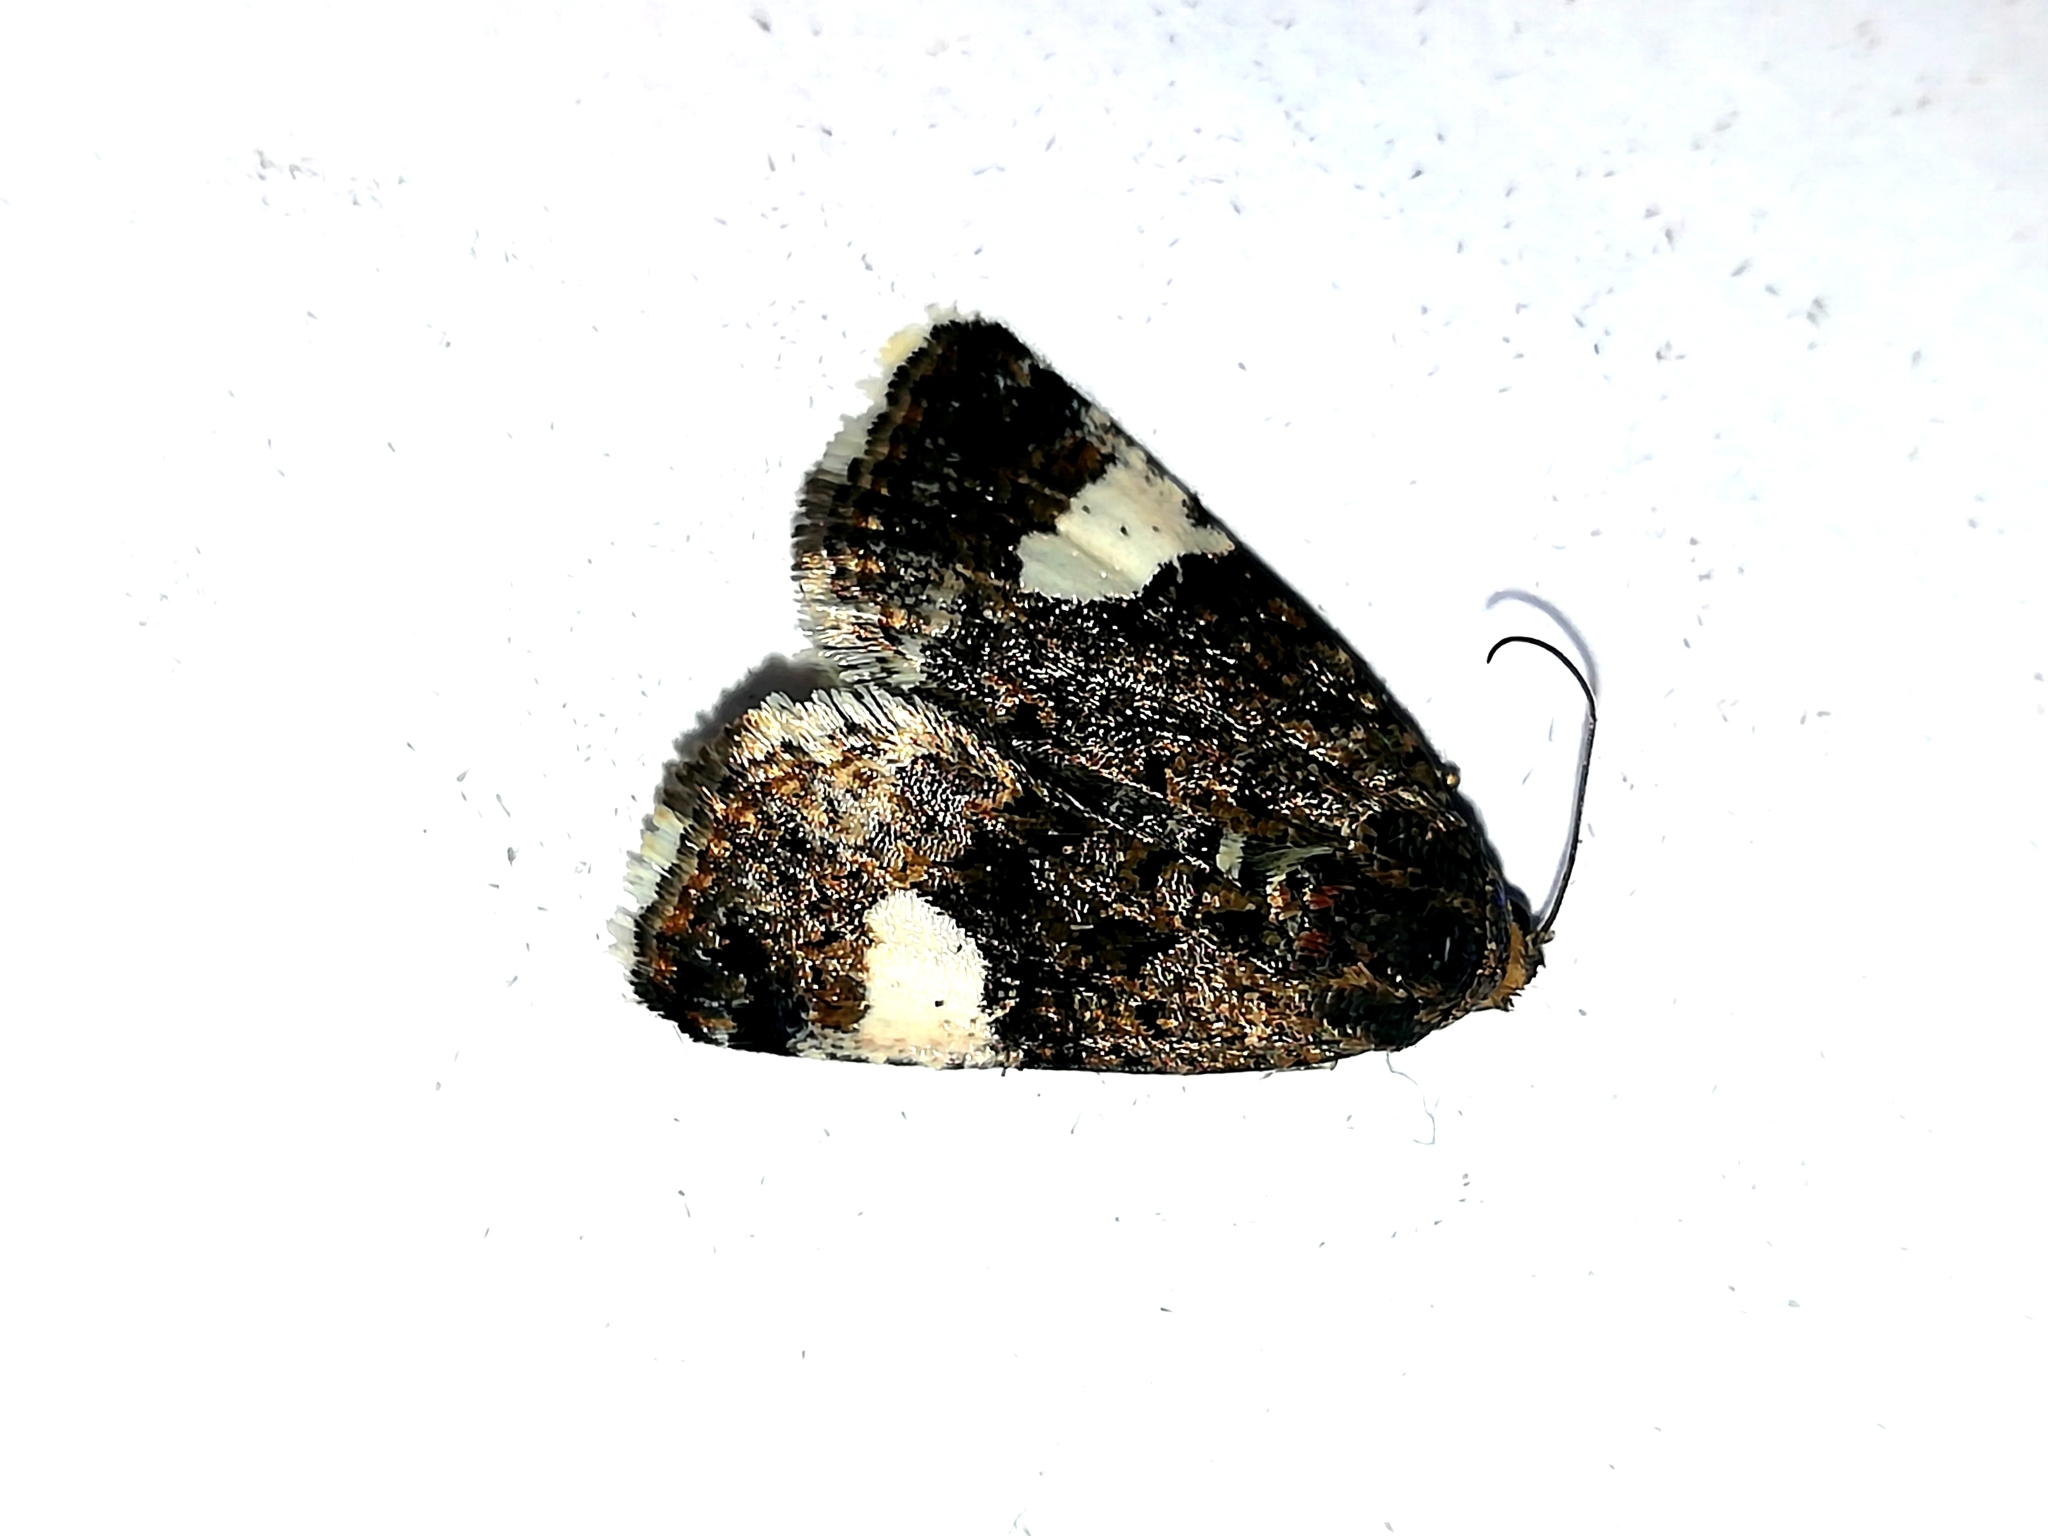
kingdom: Animalia
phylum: Arthropoda
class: Insecta
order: Lepidoptera
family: Erebidae
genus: Tyta
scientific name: Tyta luctuosa
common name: Four-spotted
